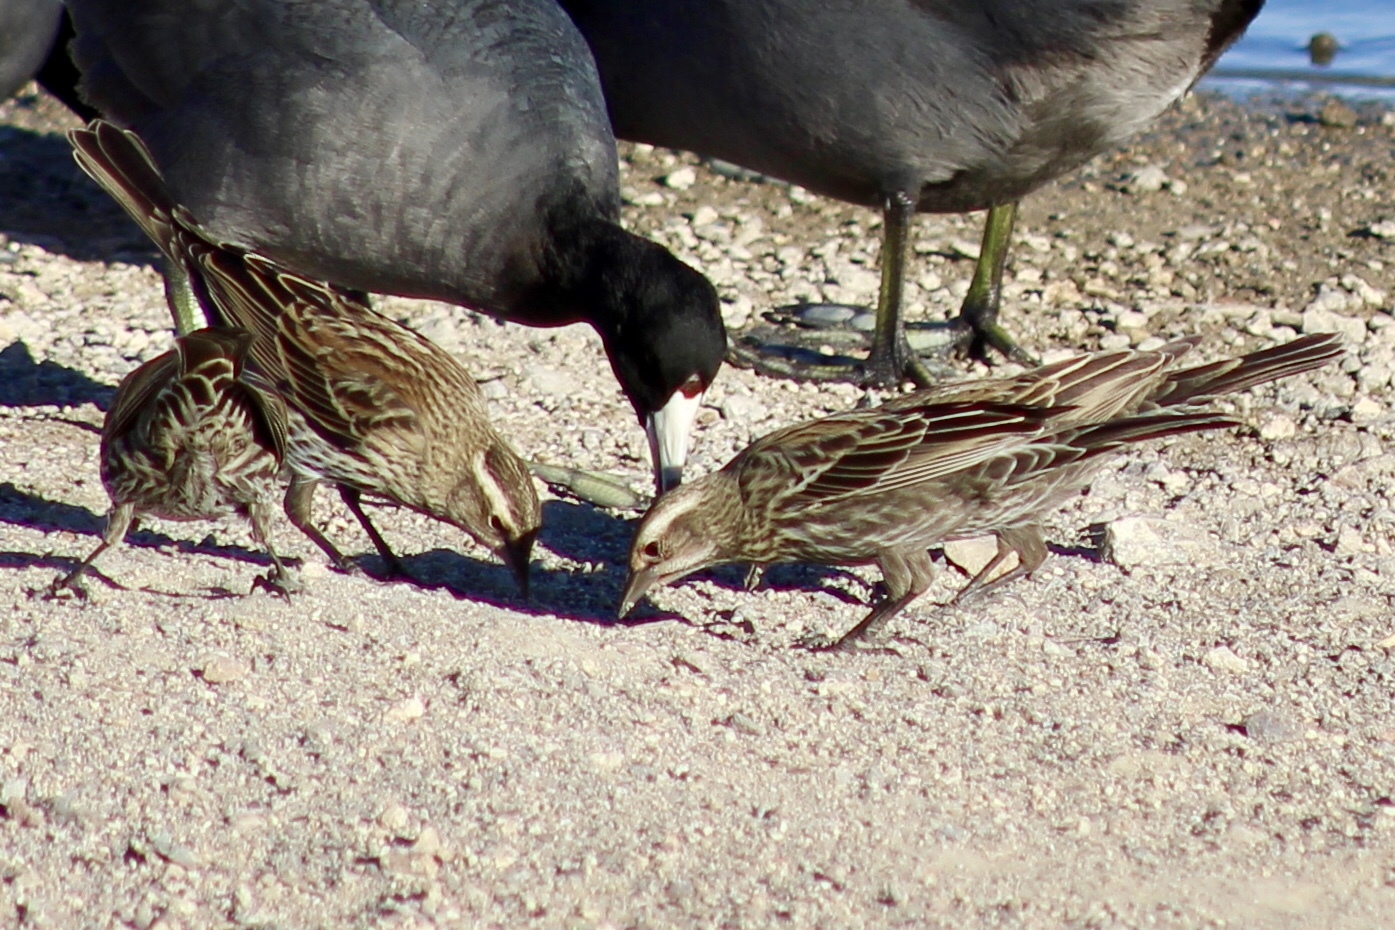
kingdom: Animalia
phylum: Chordata
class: Aves
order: Passeriformes
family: Icteridae
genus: Agelaius
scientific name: Agelaius phoeniceus
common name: Red-winged blackbird
